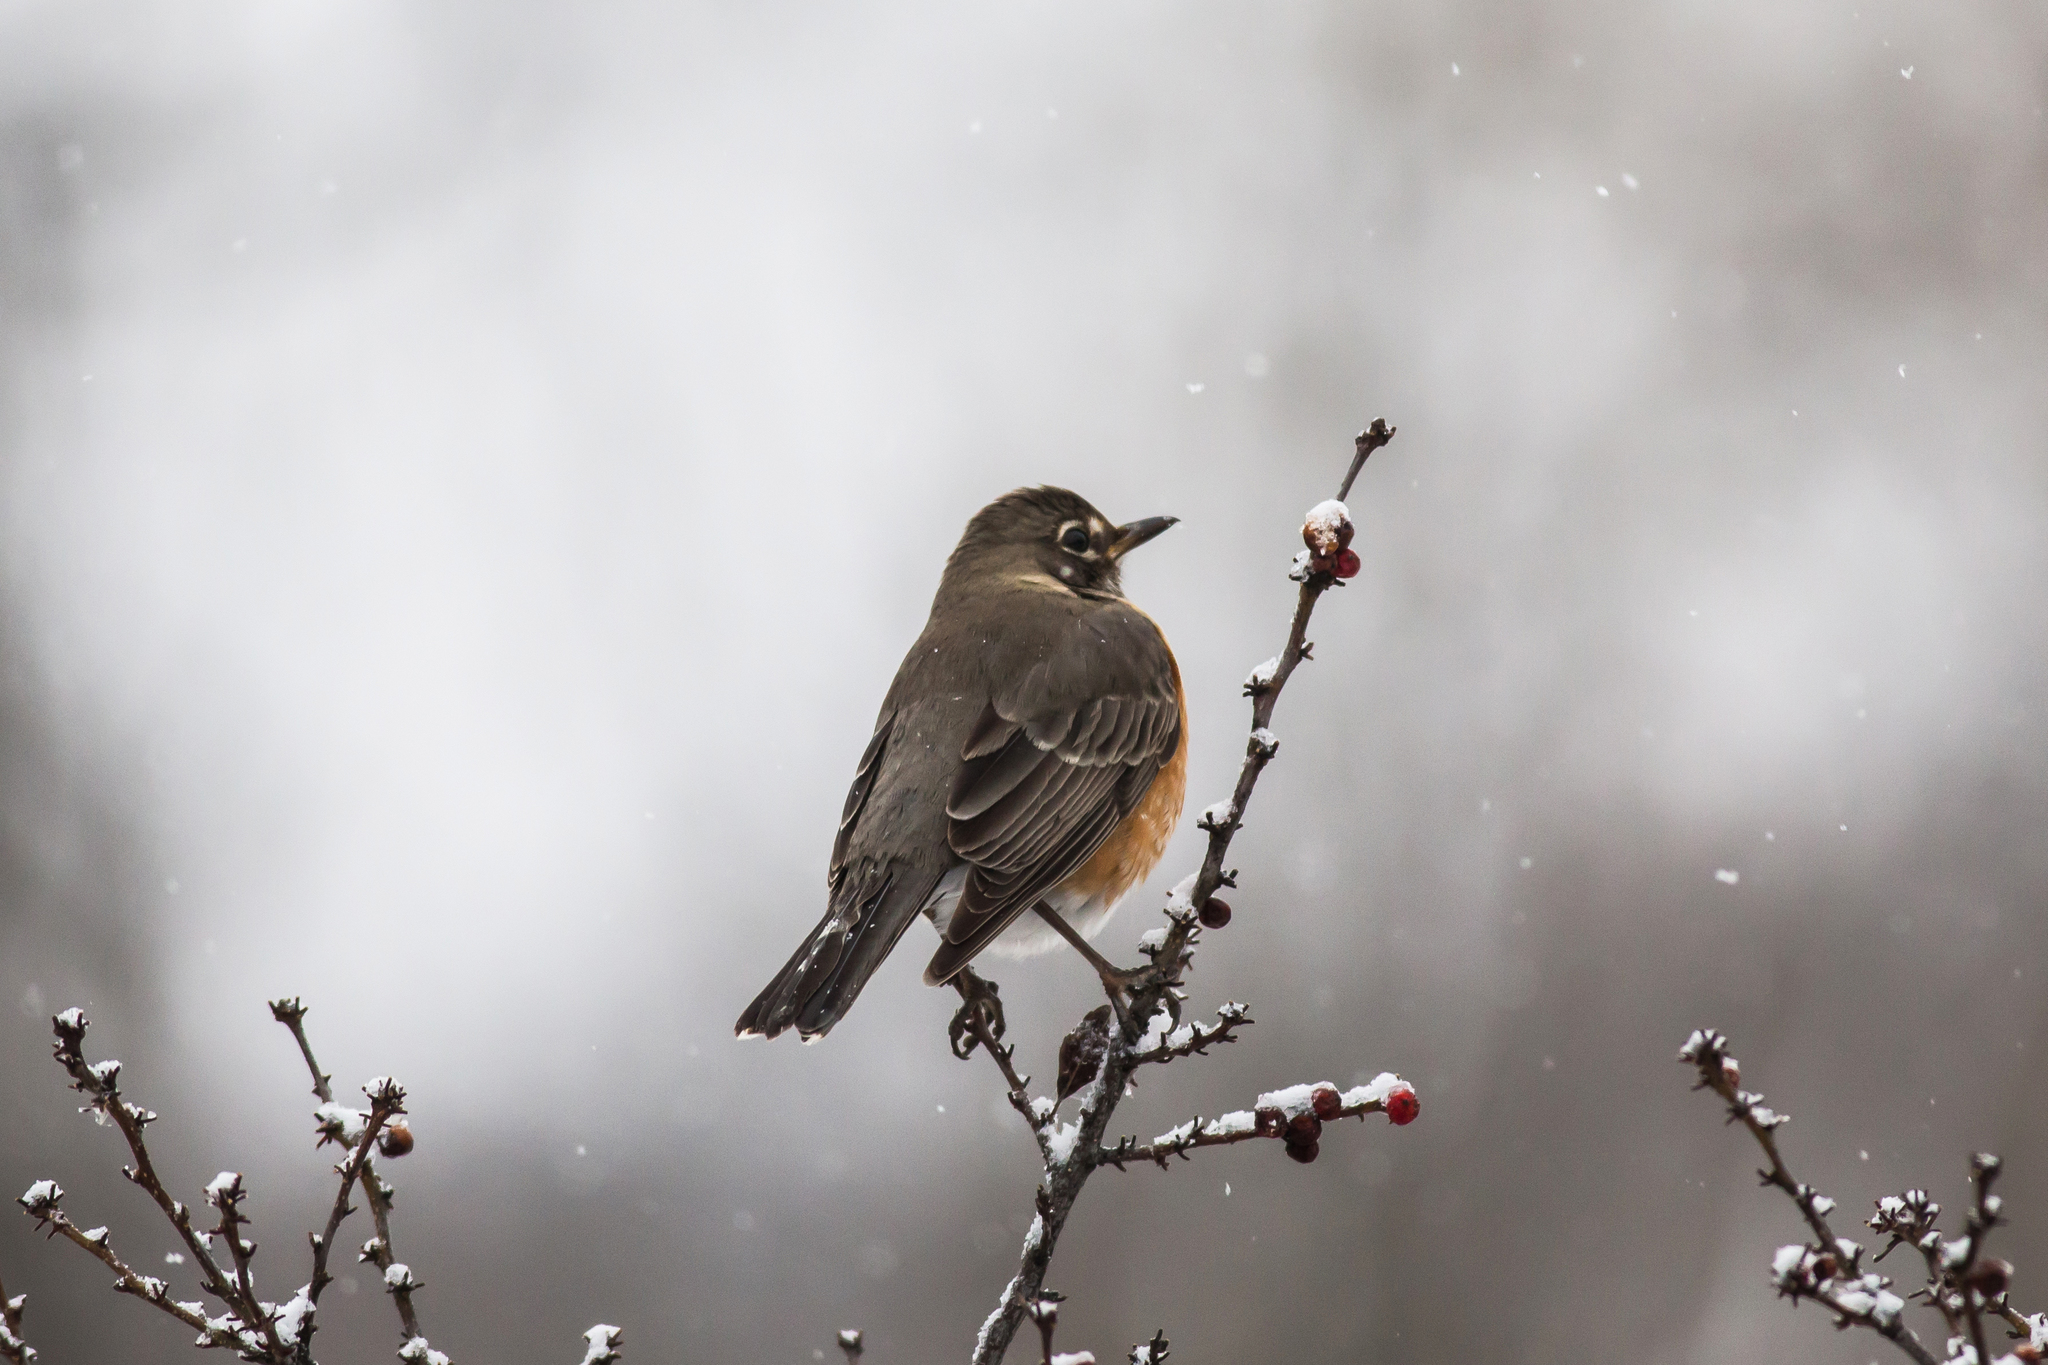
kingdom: Animalia
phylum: Chordata
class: Aves
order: Passeriformes
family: Turdidae
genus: Turdus
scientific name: Turdus migratorius
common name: American robin
